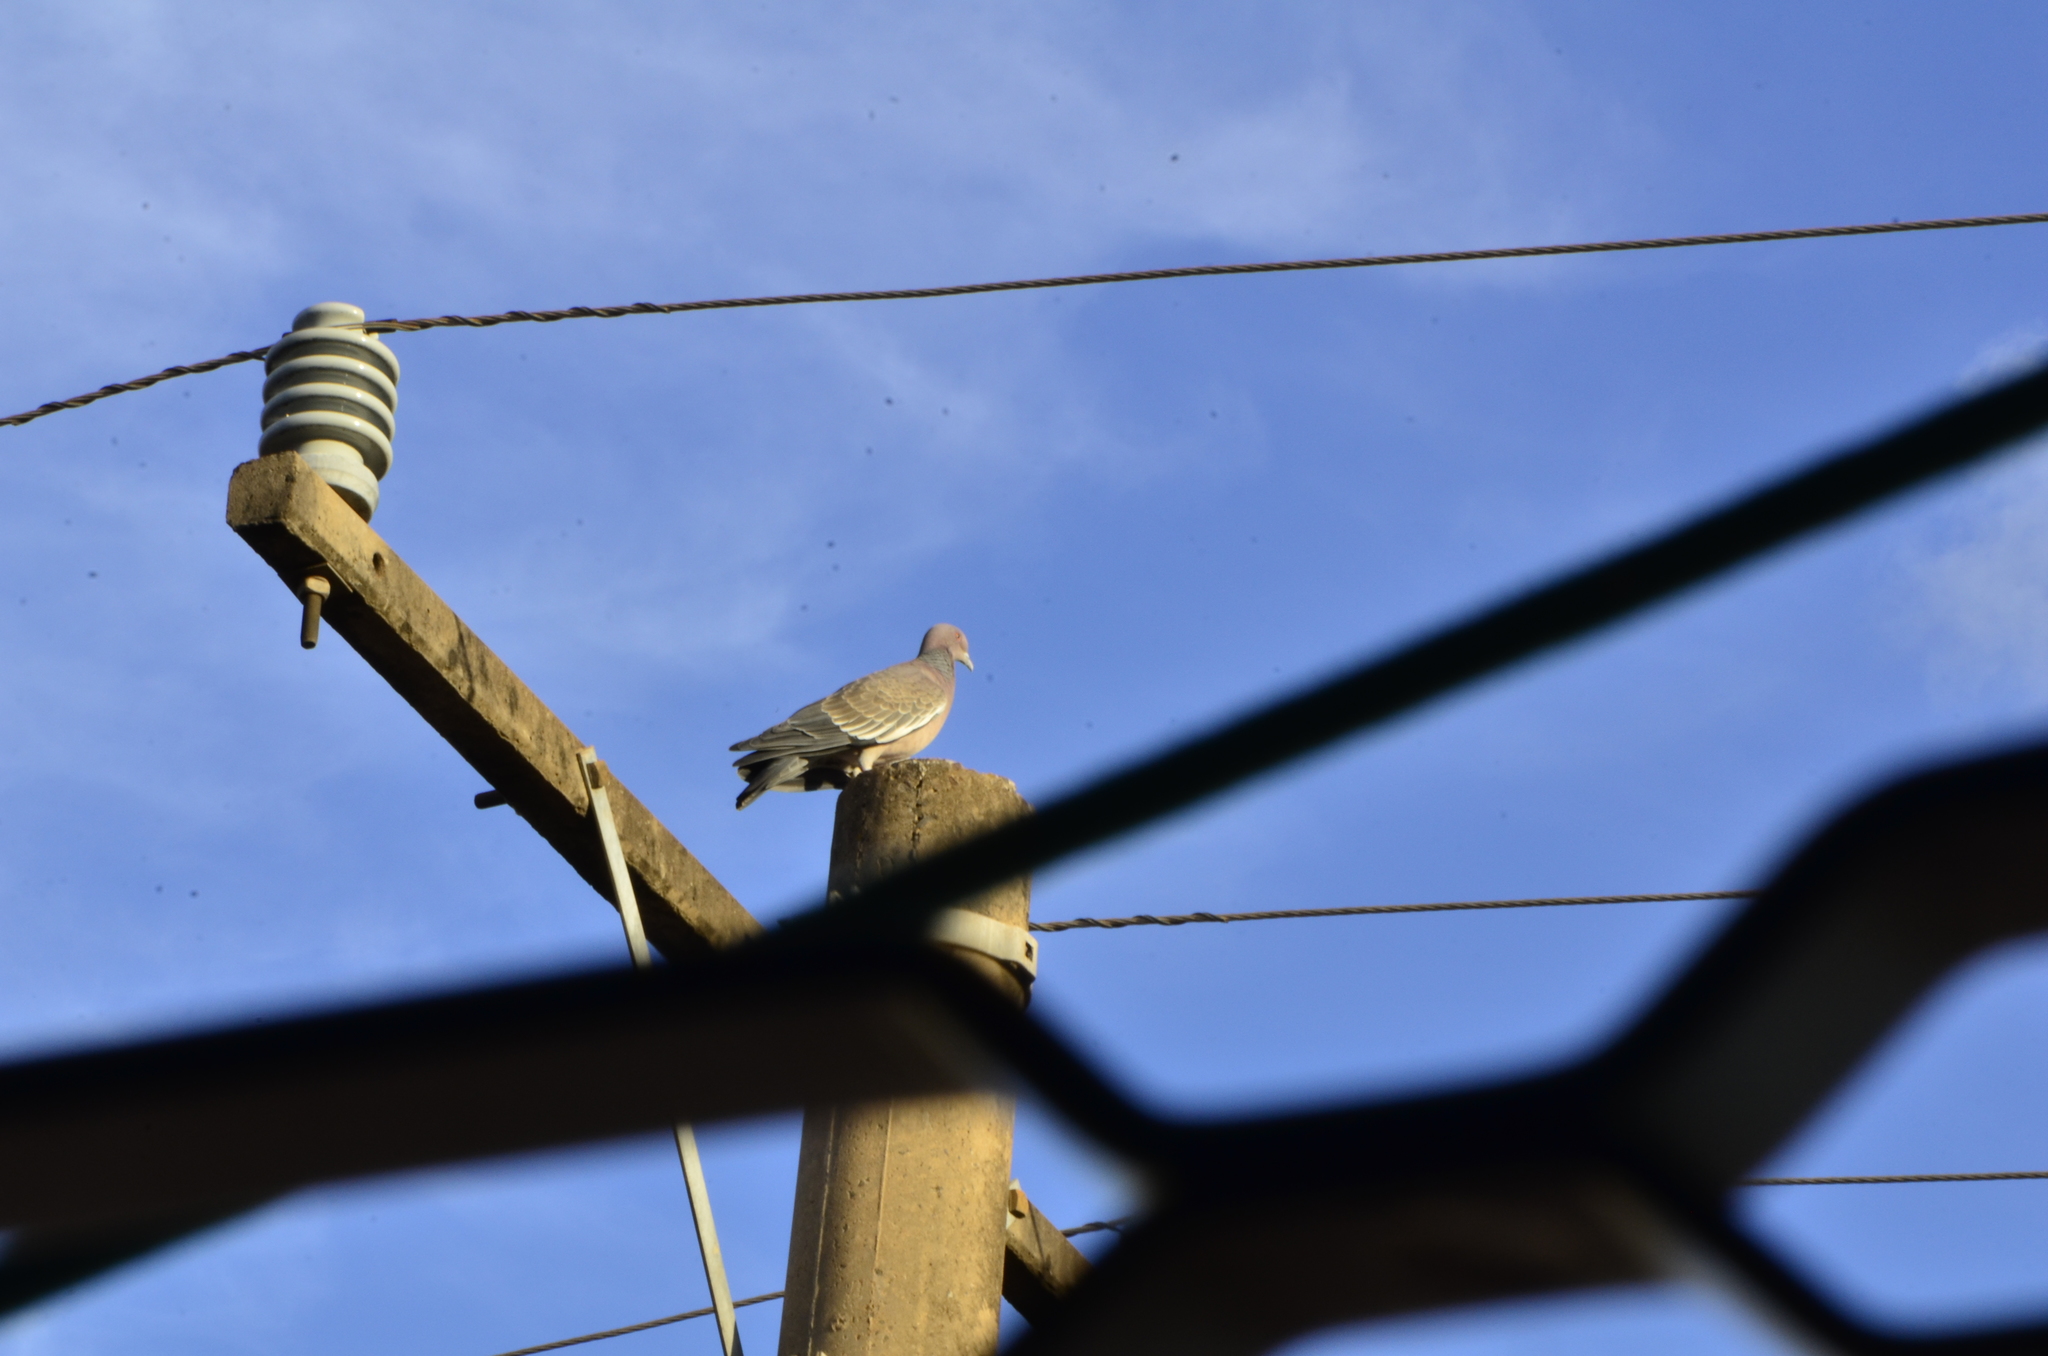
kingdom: Animalia
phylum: Chordata
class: Aves
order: Columbiformes
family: Columbidae
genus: Patagioenas
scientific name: Patagioenas picazuro
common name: Picazuro pigeon
